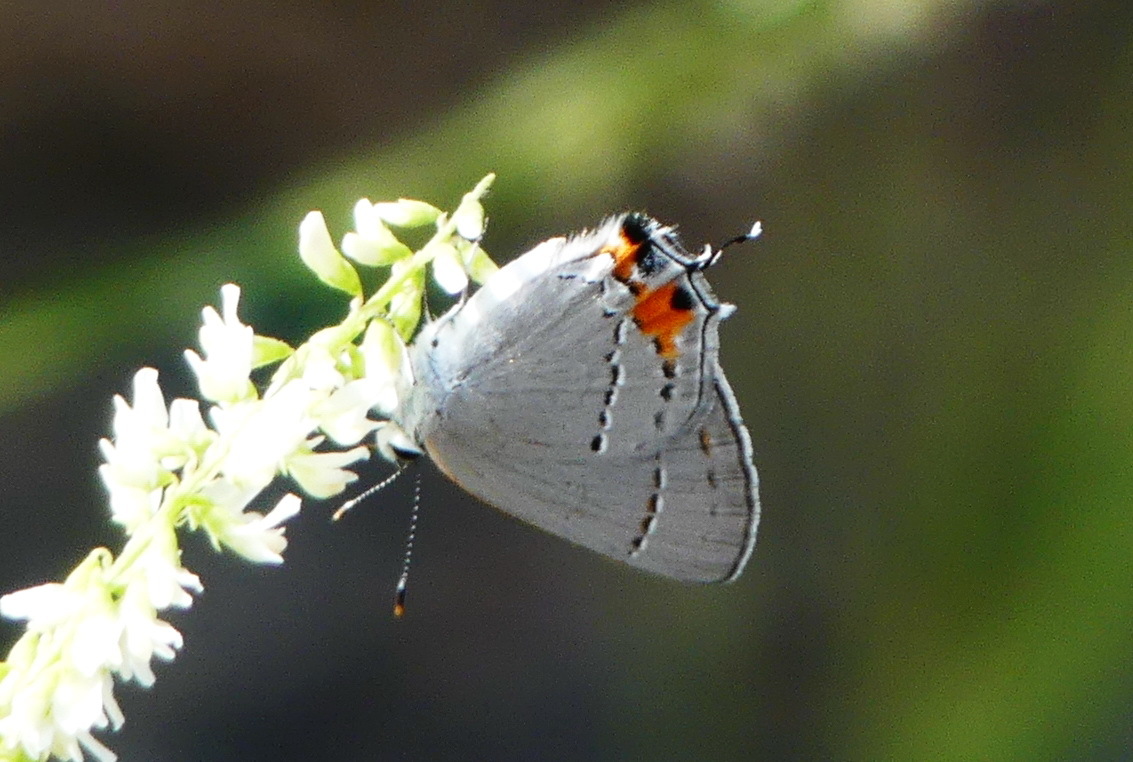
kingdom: Animalia
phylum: Arthropoda
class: Insecta
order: Lepidoptera
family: Lycaenidae
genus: Strymon
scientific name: Strymon melinus
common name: Gray hairstreak
